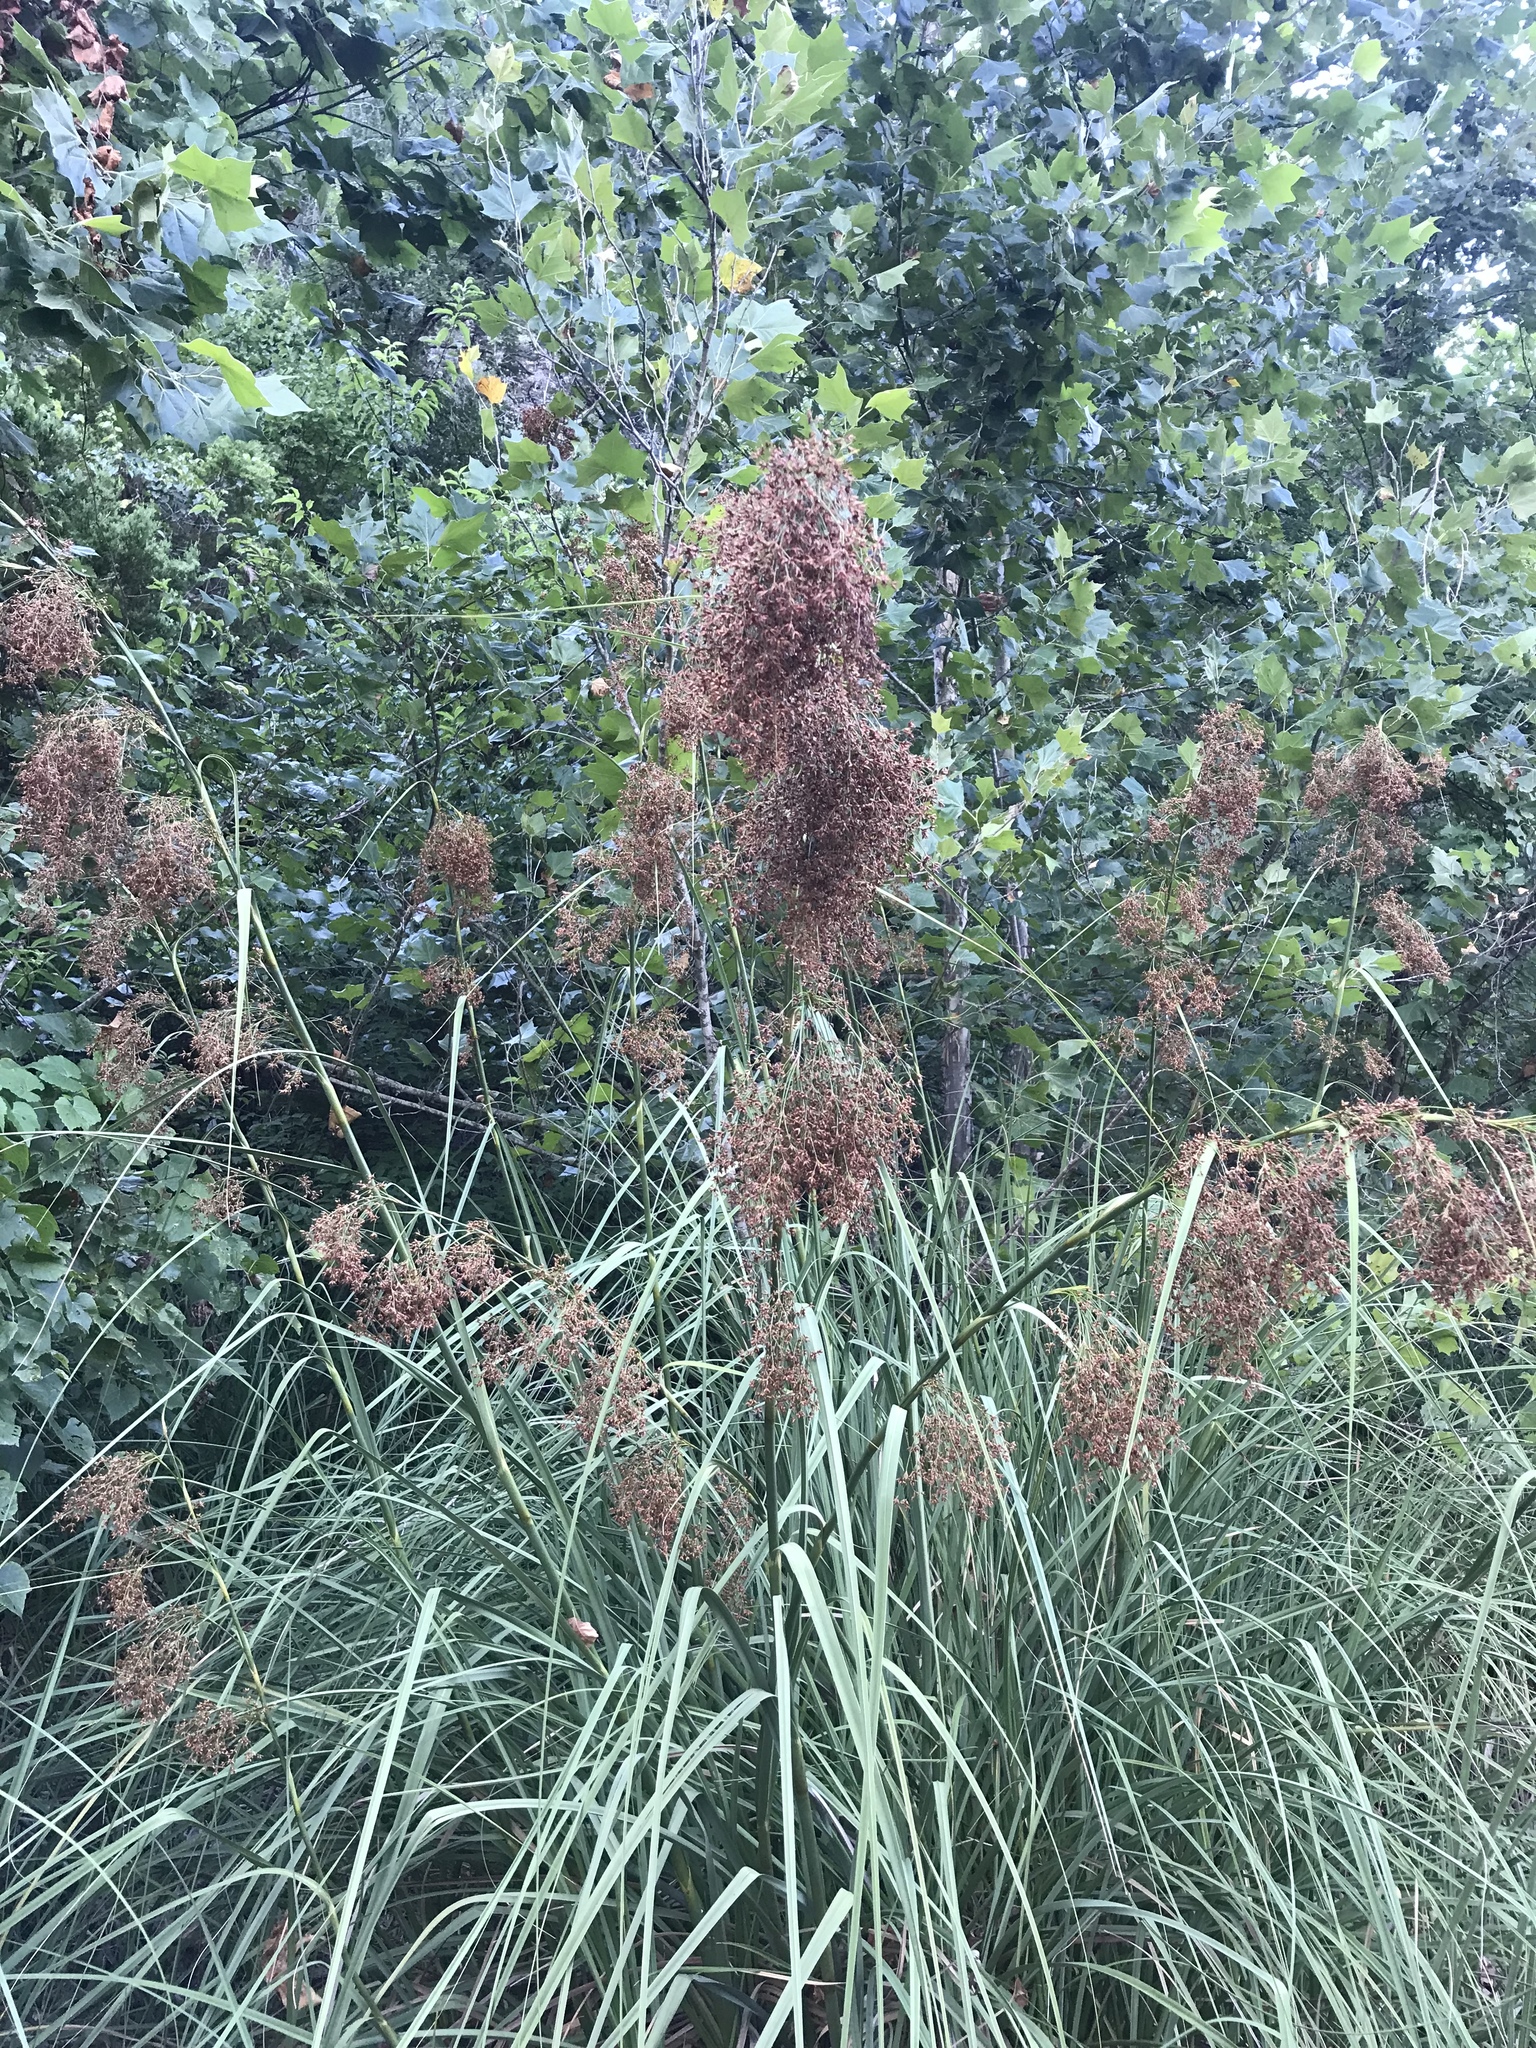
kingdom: Plantae
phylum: Tracheophyta
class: Liliopsida
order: Poales
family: Cyperaceae
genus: Cladium
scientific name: Cladium mariscus
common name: Great fen-sedge
